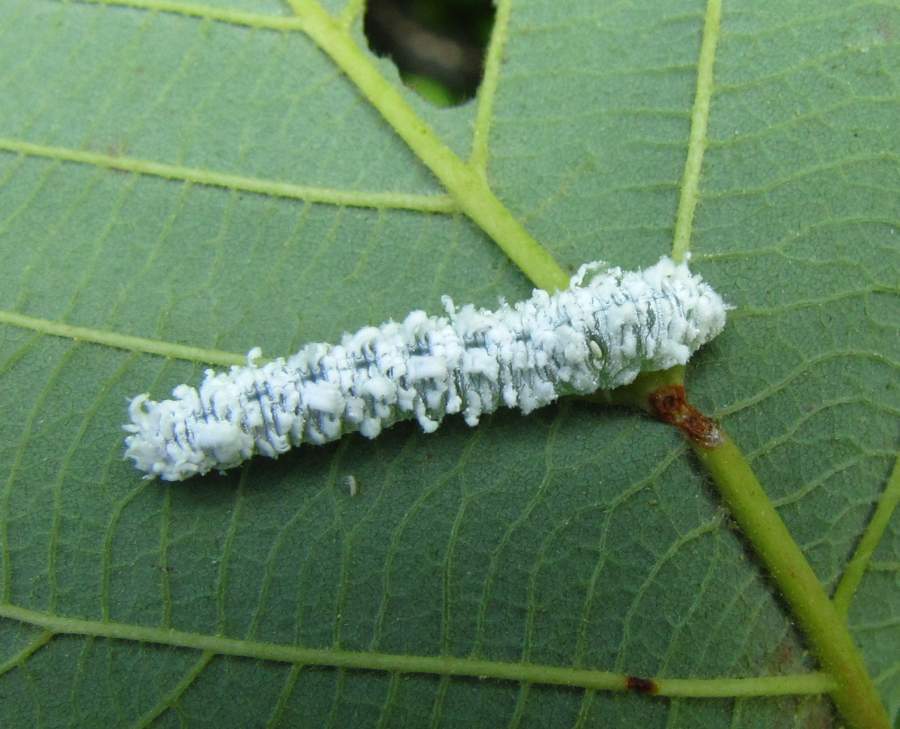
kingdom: Animalia
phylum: Arthropoda
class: Insecta
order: Hymenoptera
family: Tenthredinidae
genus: Eriocampa
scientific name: Eriocampa ovata
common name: Alder wooly sawfly
